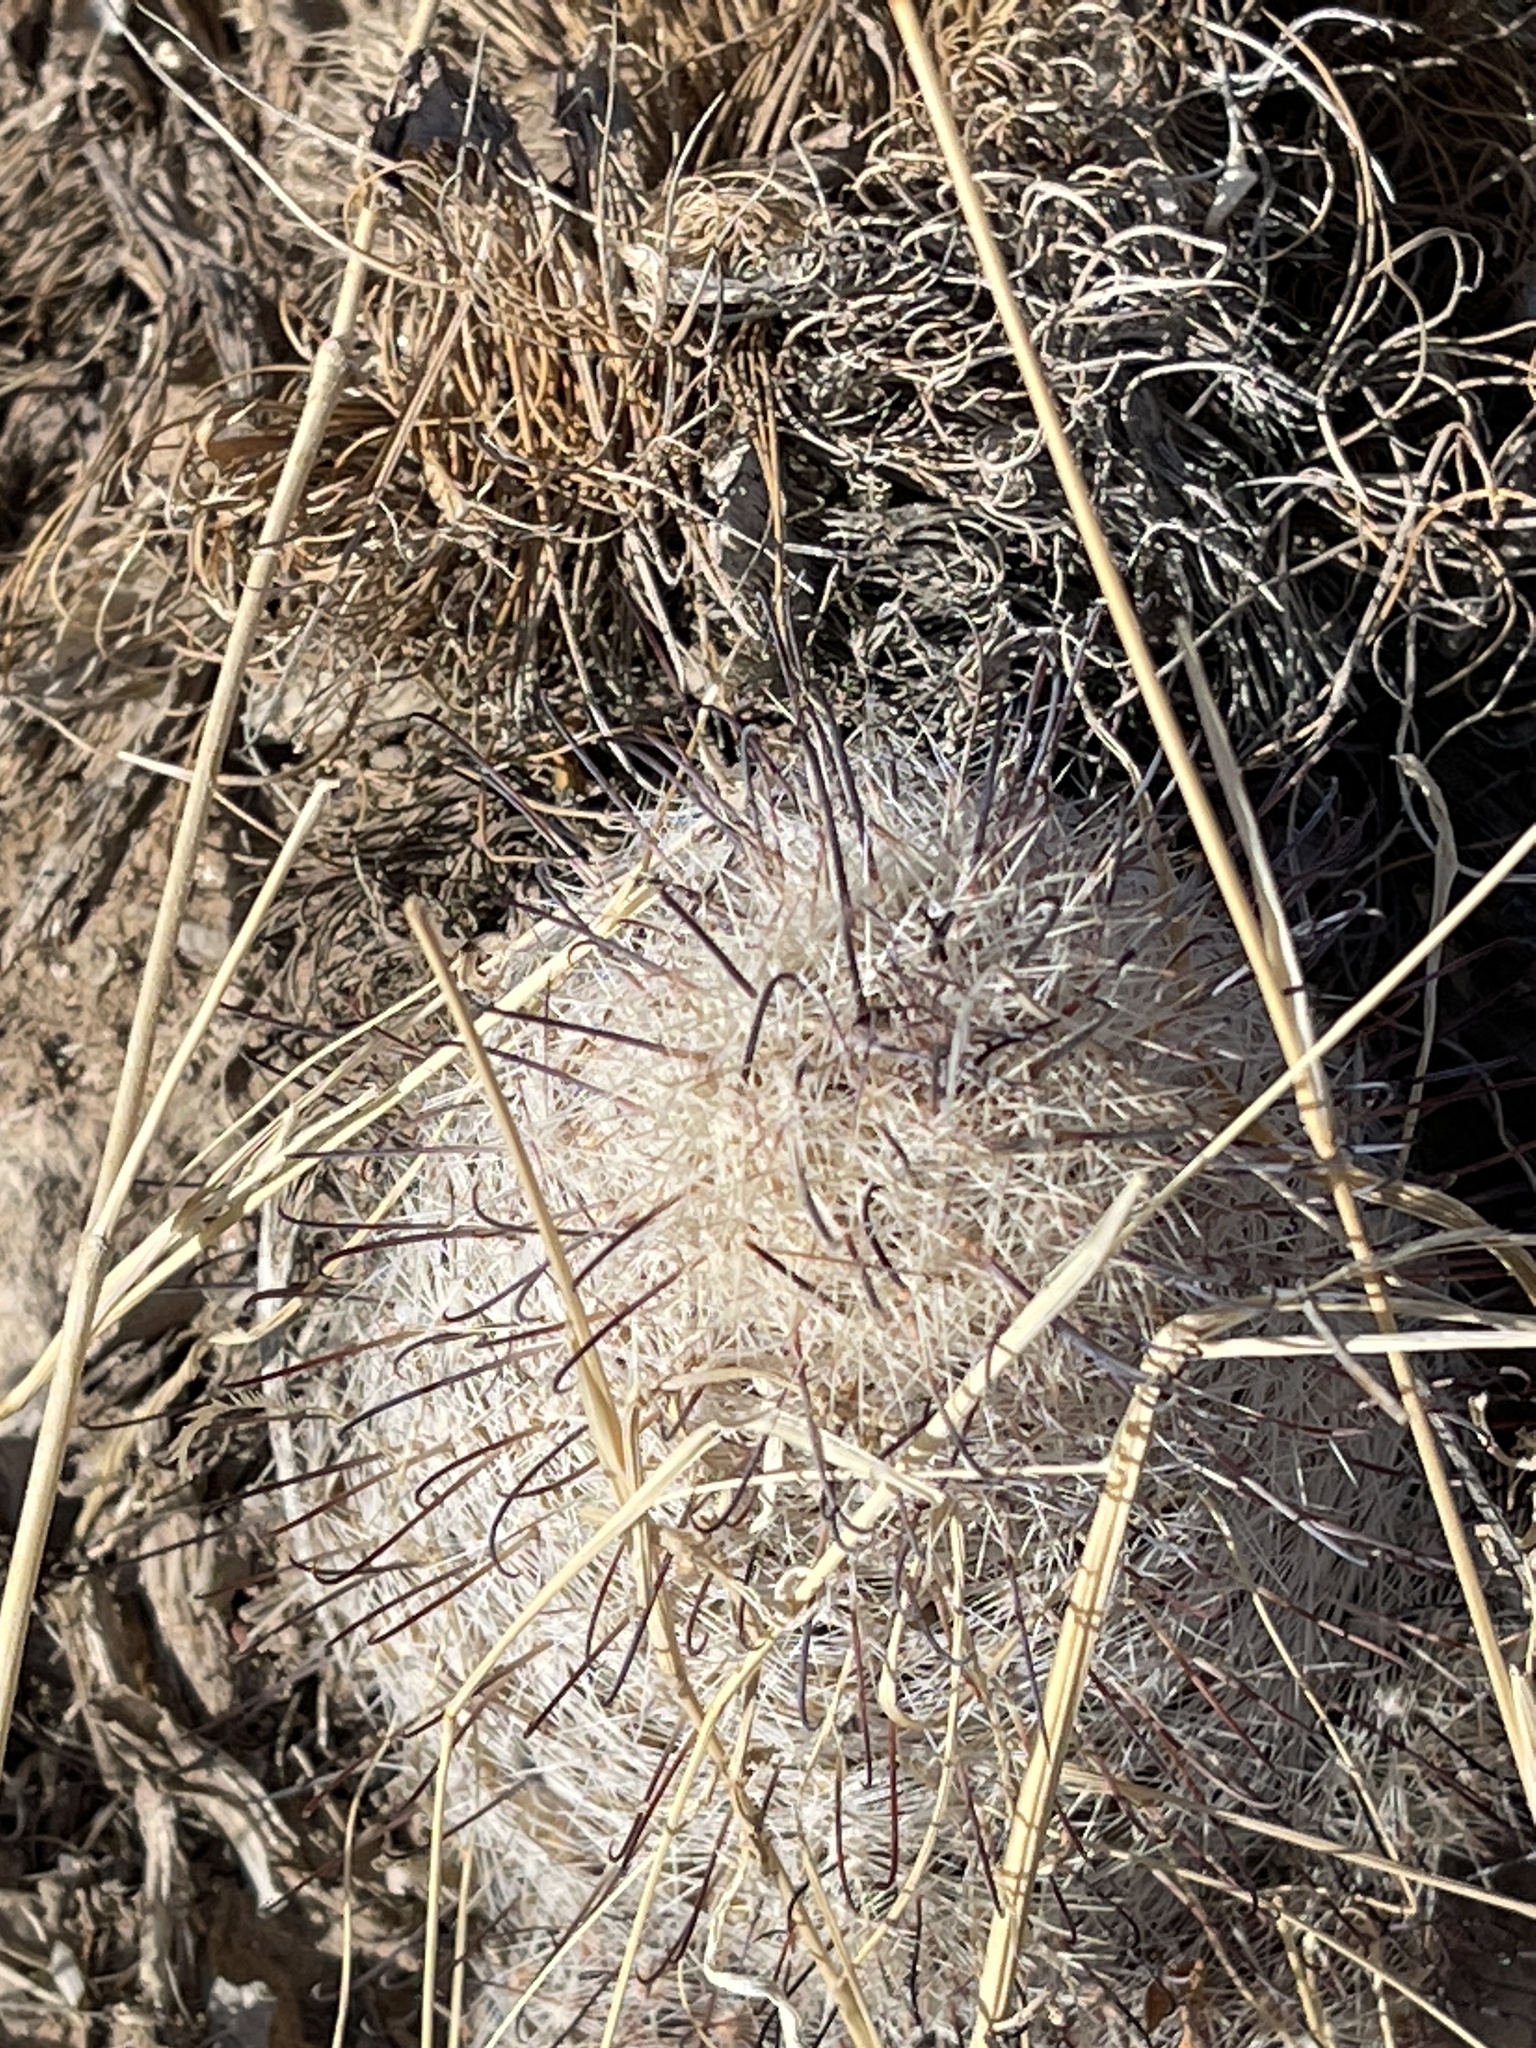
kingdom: Plantae
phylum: Tracheophyta
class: Magnoliopsida
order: Caryophyllales
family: Cactaceae
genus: Cochemiea
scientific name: Cochemiea grahamii
